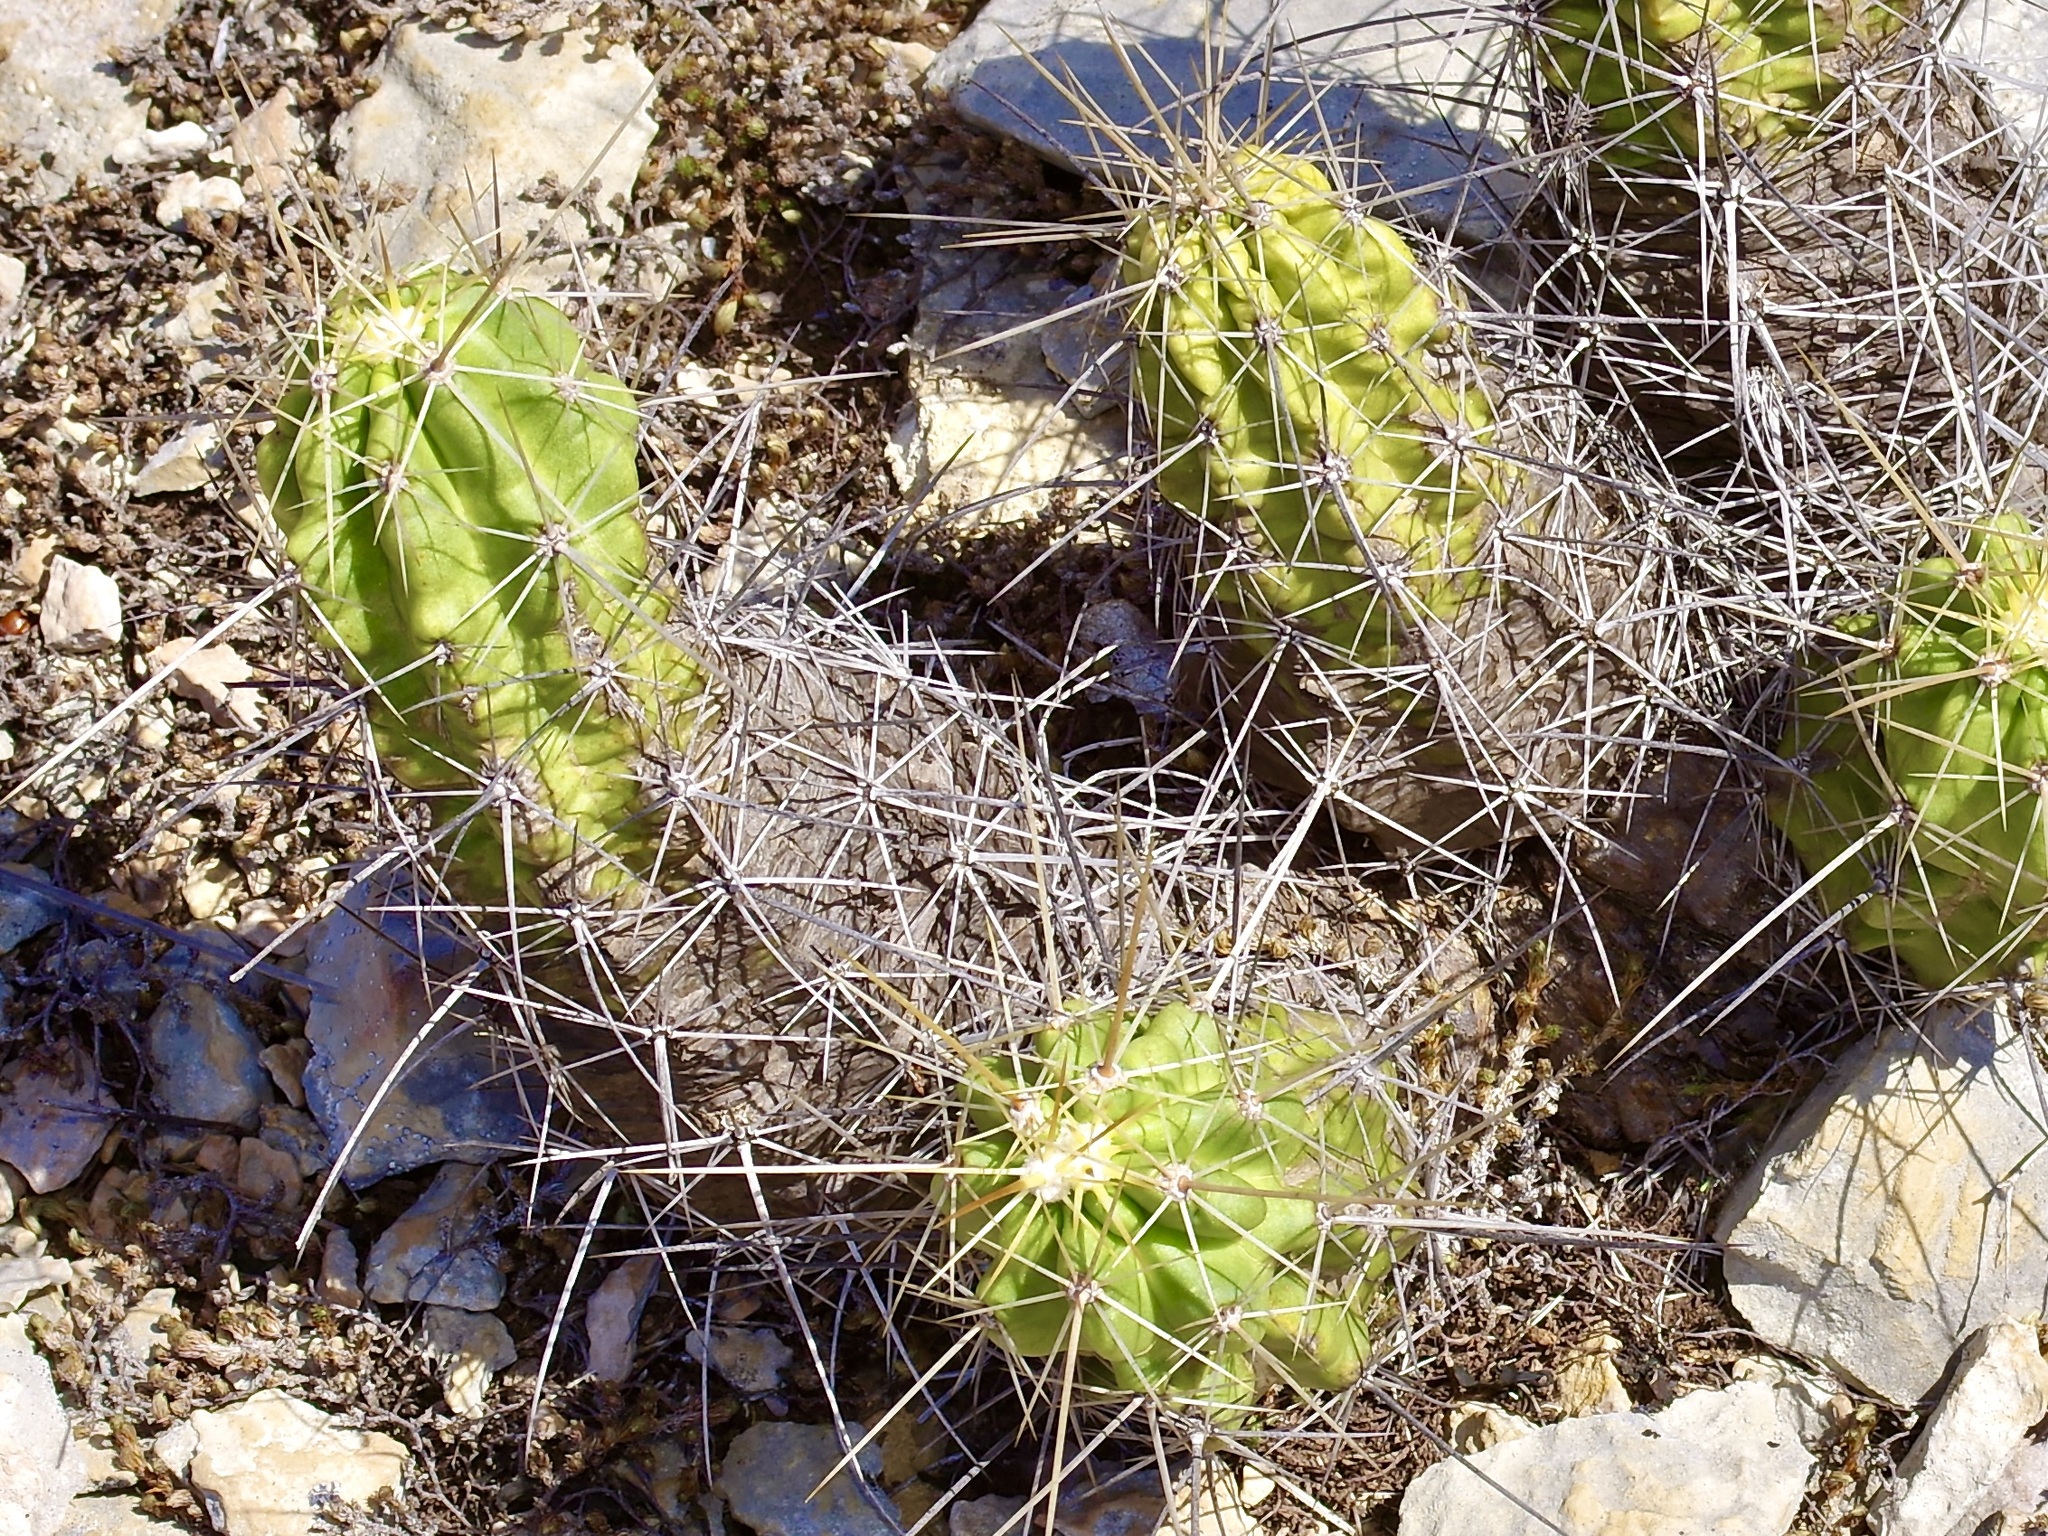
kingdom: Plantae
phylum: Tracheophyta
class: Magnoliopsida
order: Caryophyllales
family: Cactaceae
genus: Echinocereus
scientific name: Echinocereus enneacanthus
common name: Pitaya
